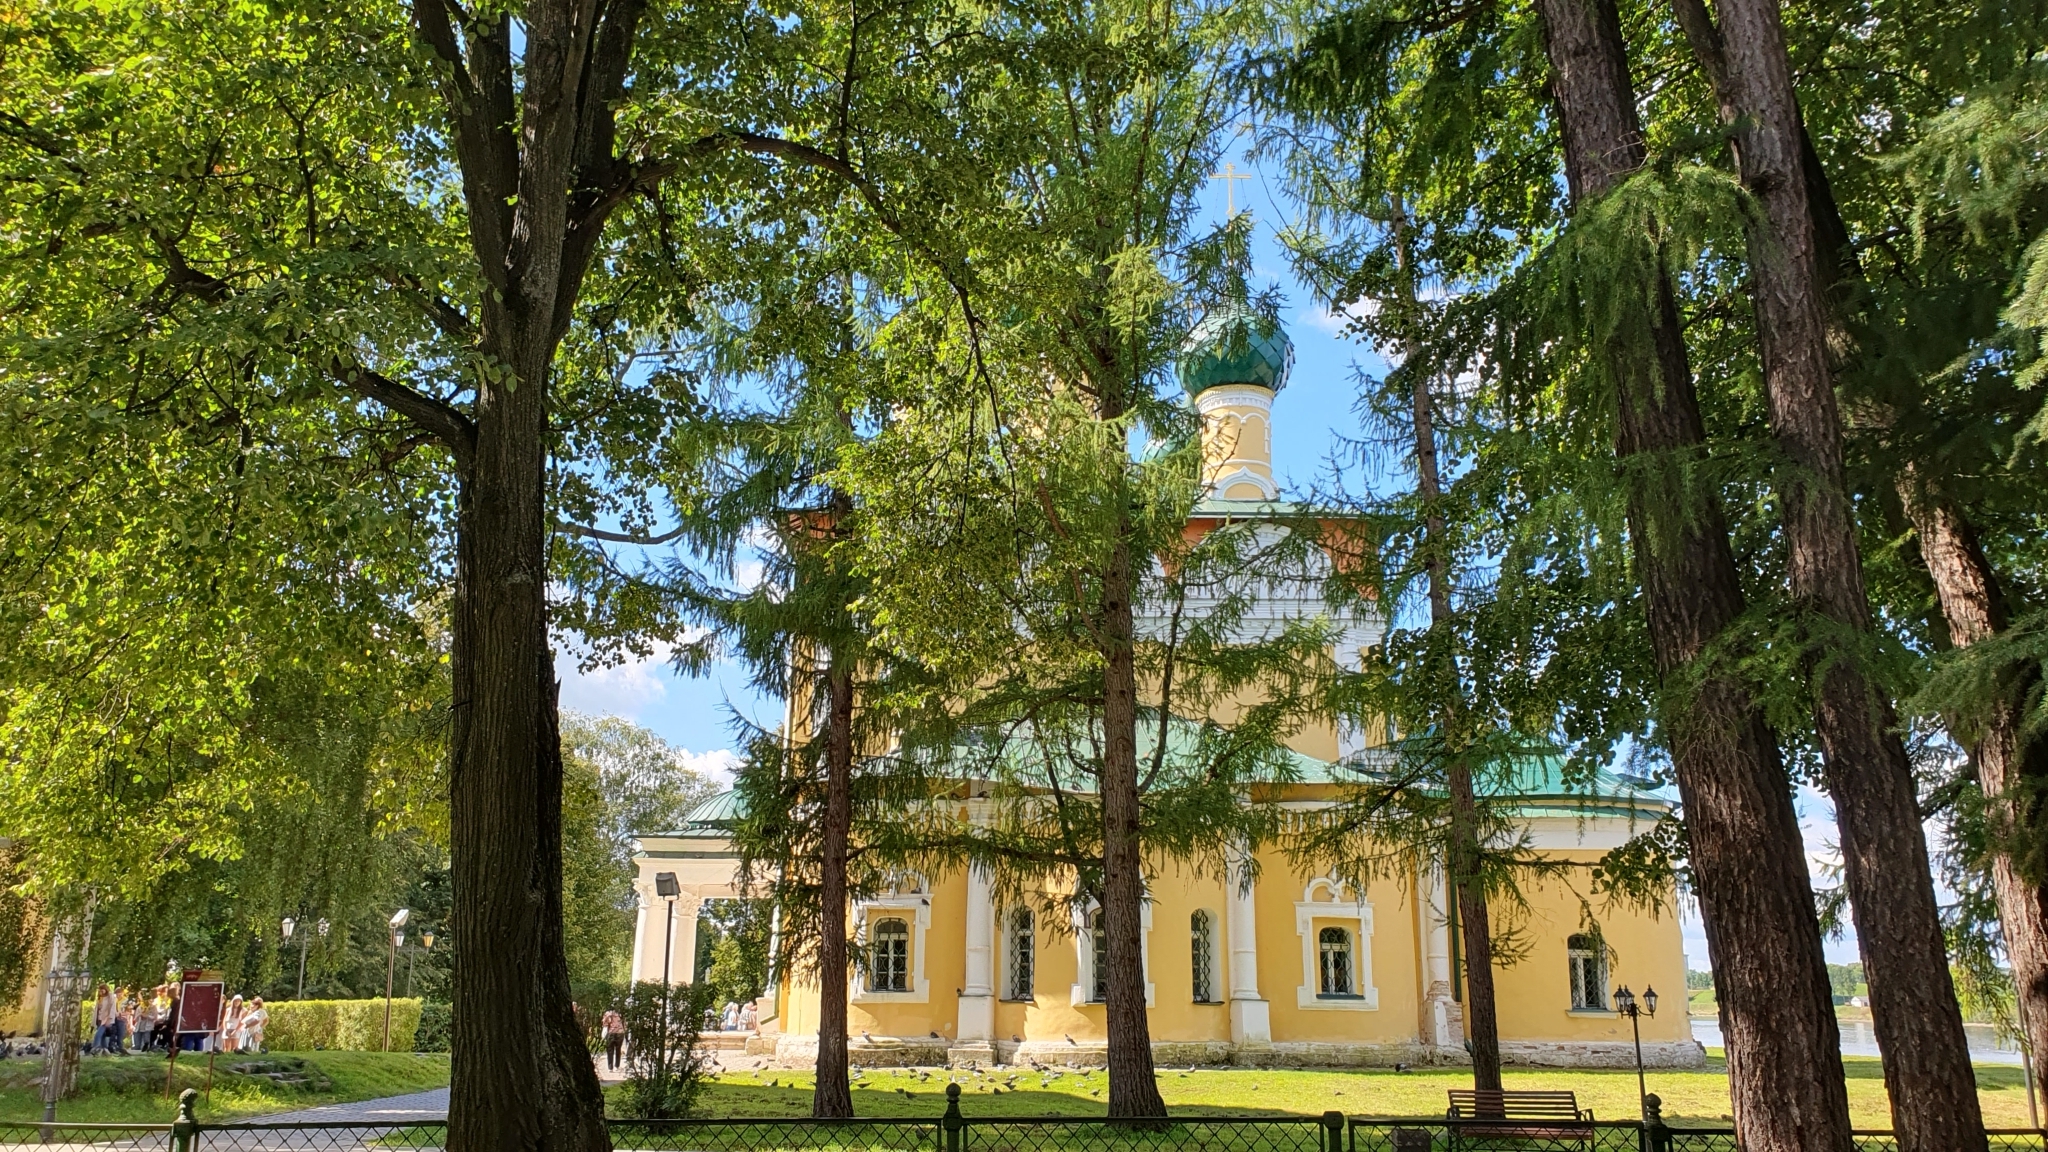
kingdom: Plantae
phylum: Tracheophyta
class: Magnoliopsida
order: Malvales
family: Malvaceae
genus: Tilia
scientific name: Tilia cordata
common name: Small-leaved lime
